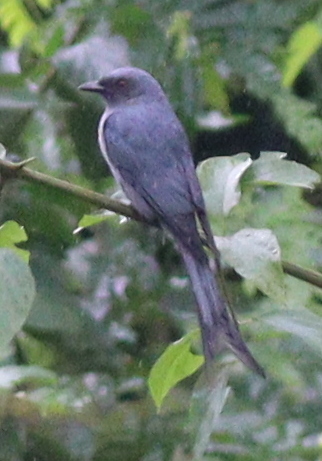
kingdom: Animalia
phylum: Chordata
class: Aves
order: Passeriformes
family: Dicruridae
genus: Dicrurus
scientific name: Dicrurus leucophaeus
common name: Ashy drongo
